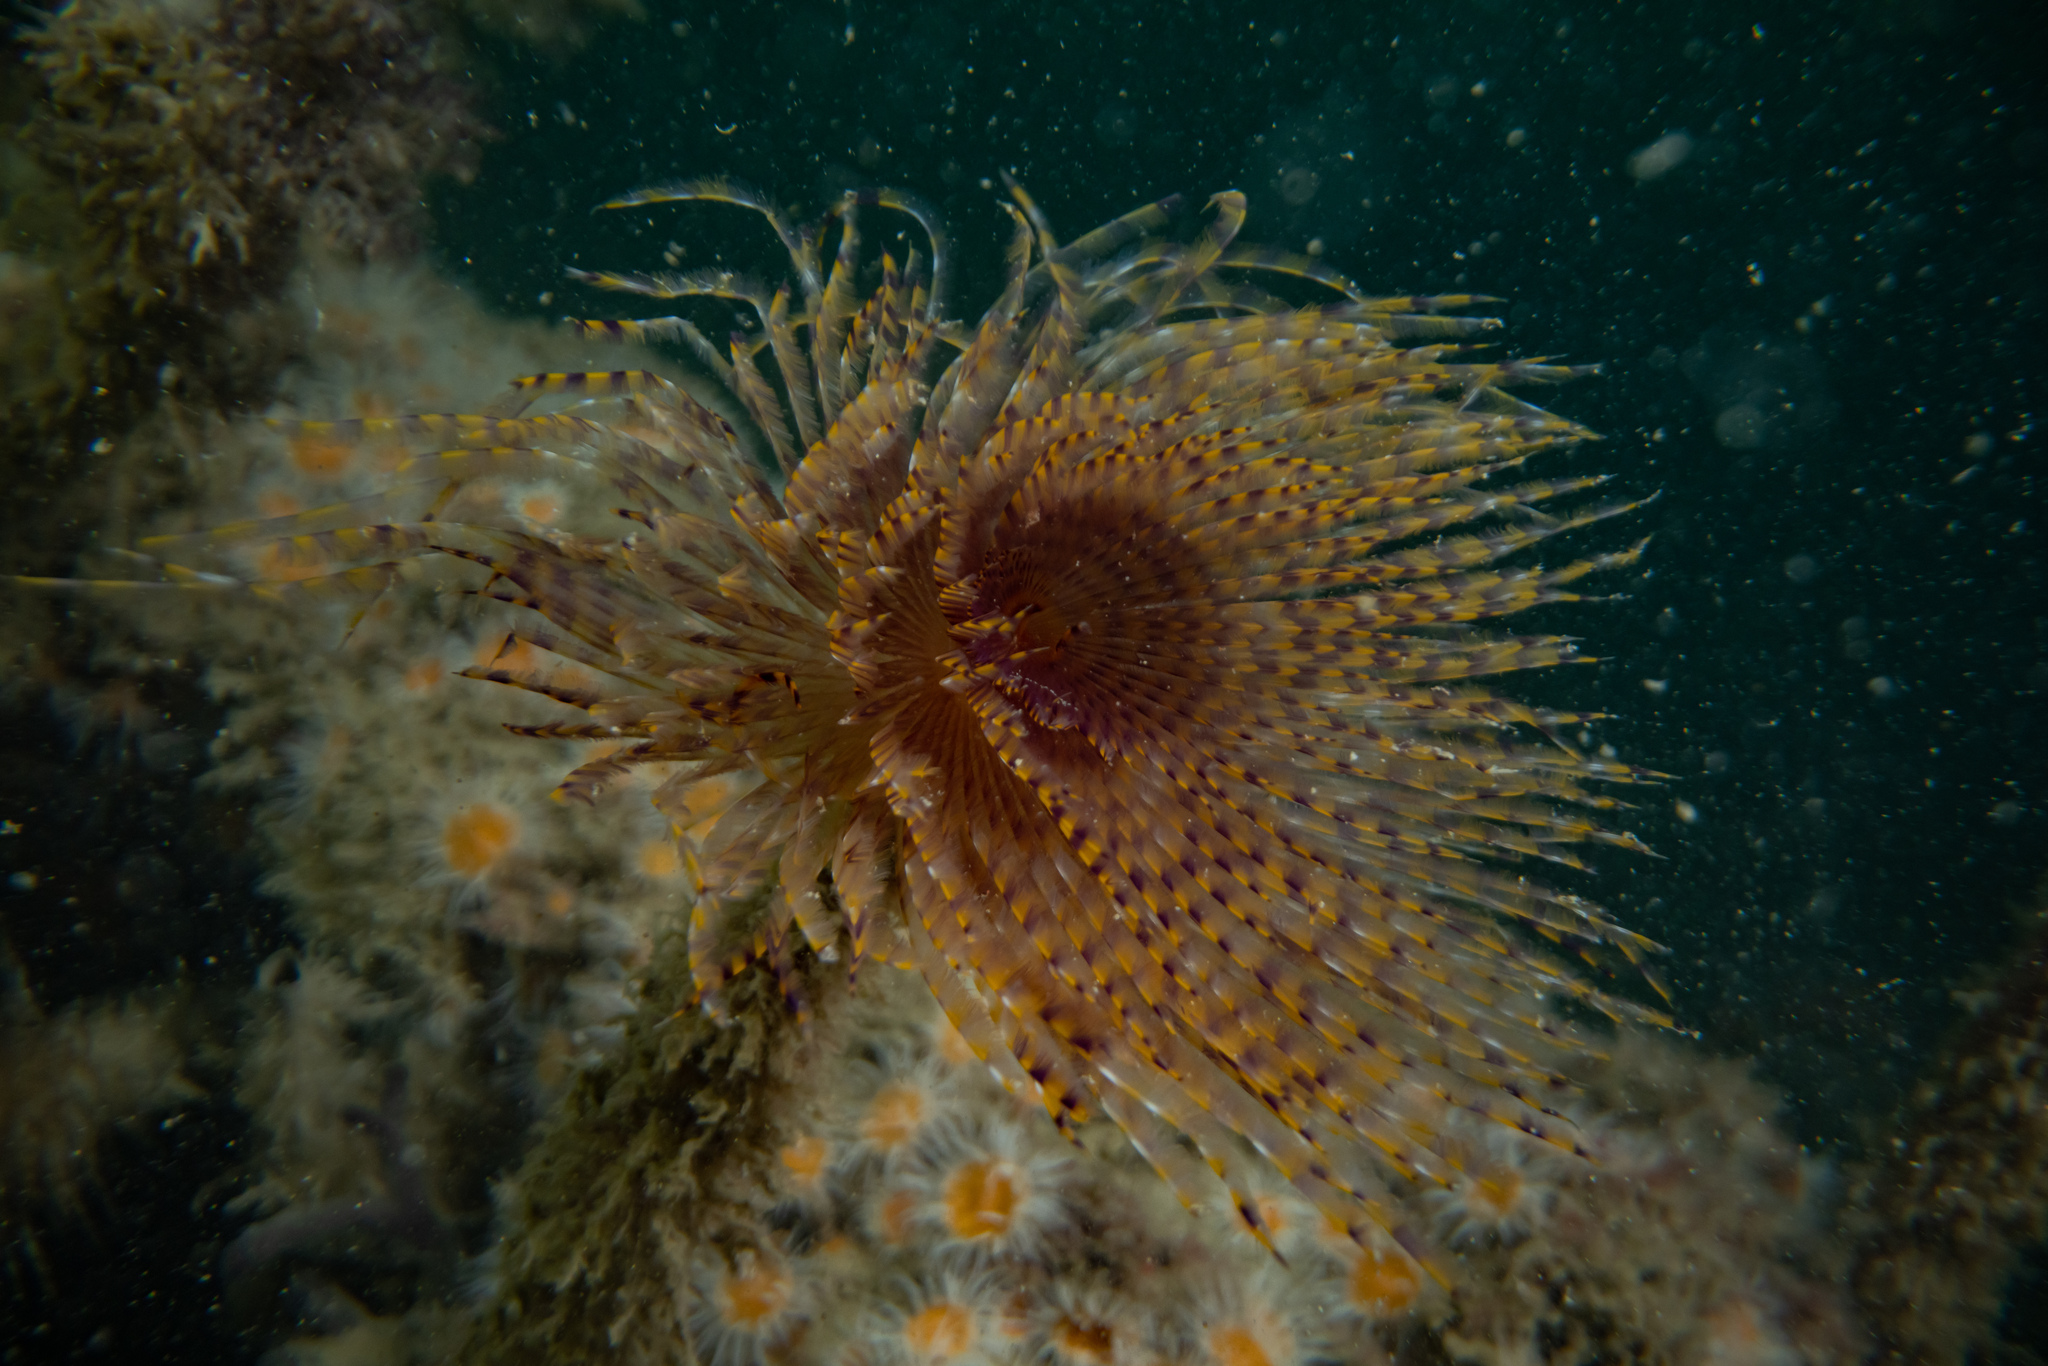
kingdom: Animalia
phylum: Annelida
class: Polychaeta
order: Sabellida
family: Sabellidae
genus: Sabella
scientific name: Sabella spallanzanii
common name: Feather duster worm
